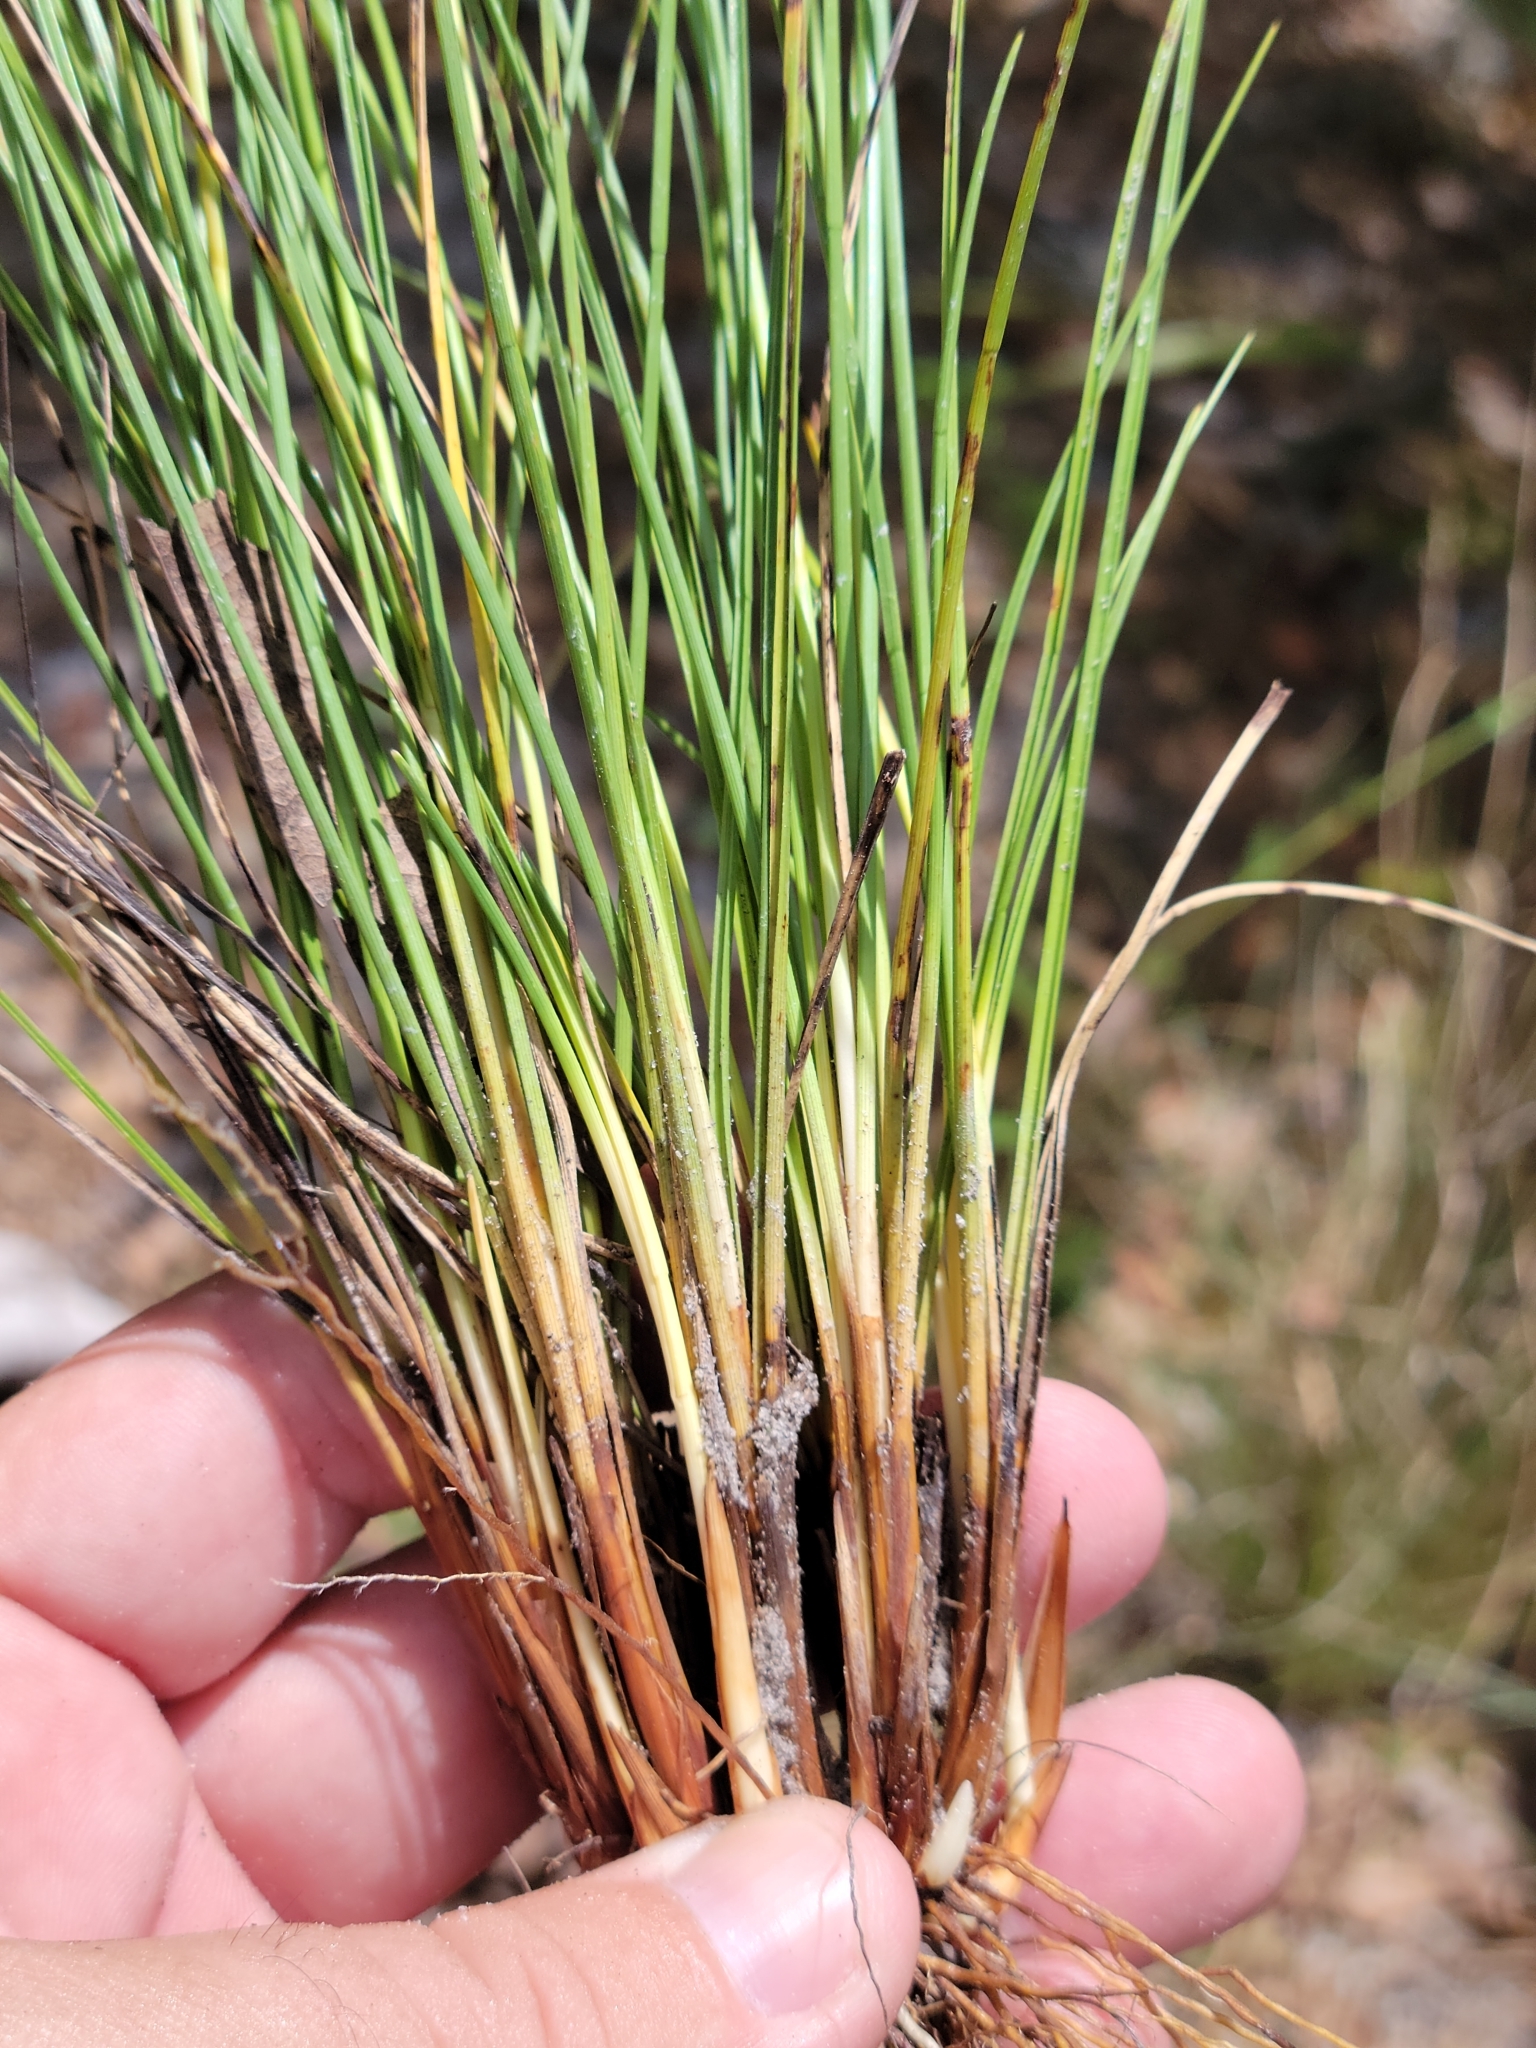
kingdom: Plantae
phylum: Tracheophyta
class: Liliopsida
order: Poales
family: Cyperaceae
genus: Rhynchospora
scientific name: Rhynchospora intermedia
